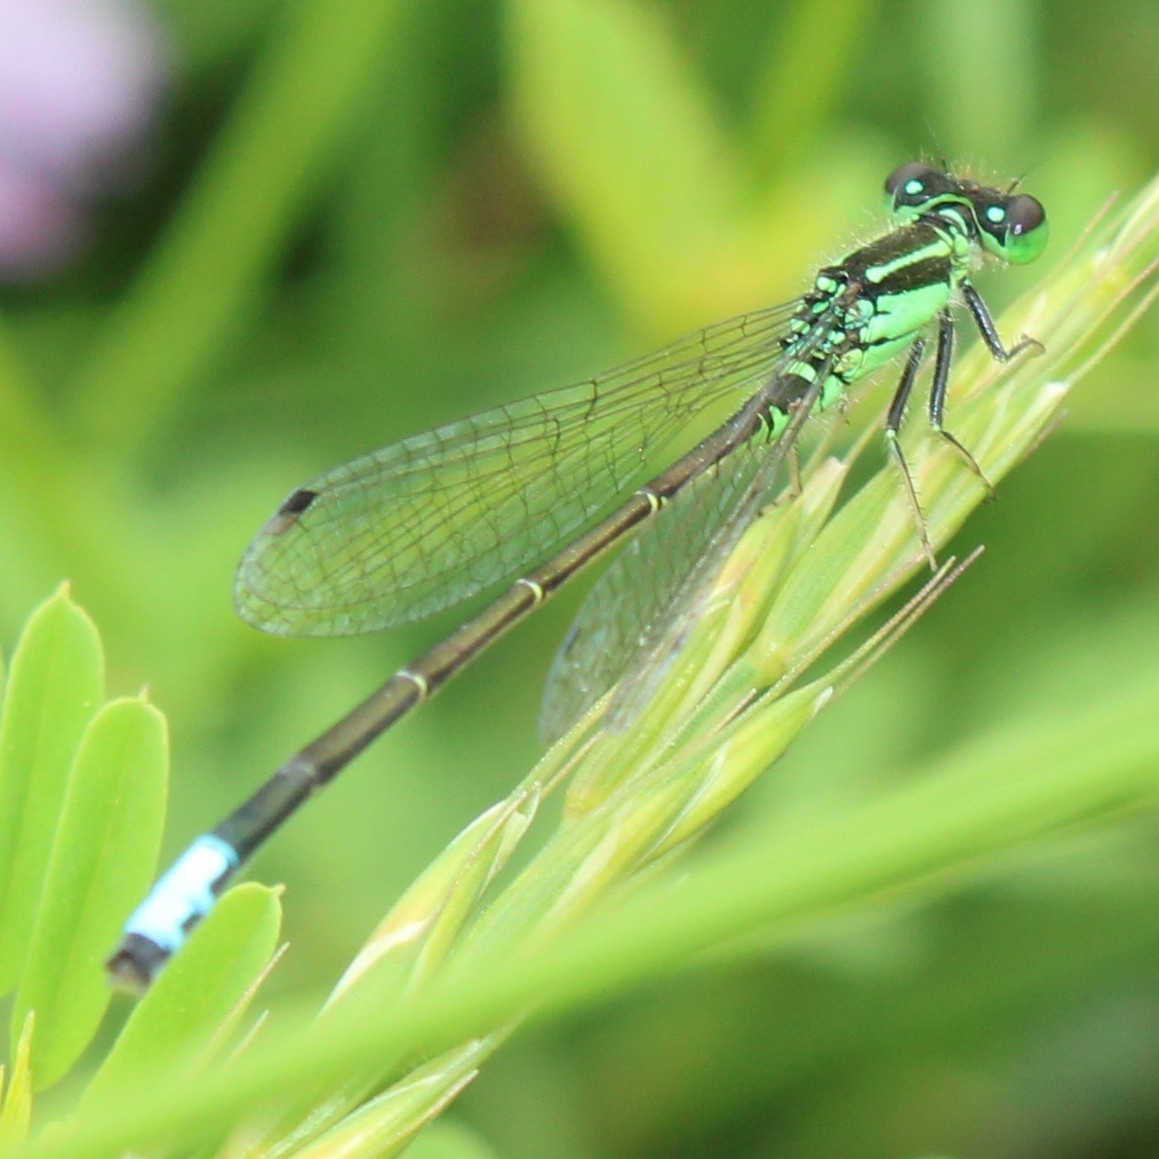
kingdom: Animalia
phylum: Arthropoda
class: Insecta
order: Odonata
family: Coenagrionidae
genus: Ischnura
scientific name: Ischnura verticalis
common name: Eastern forktail
